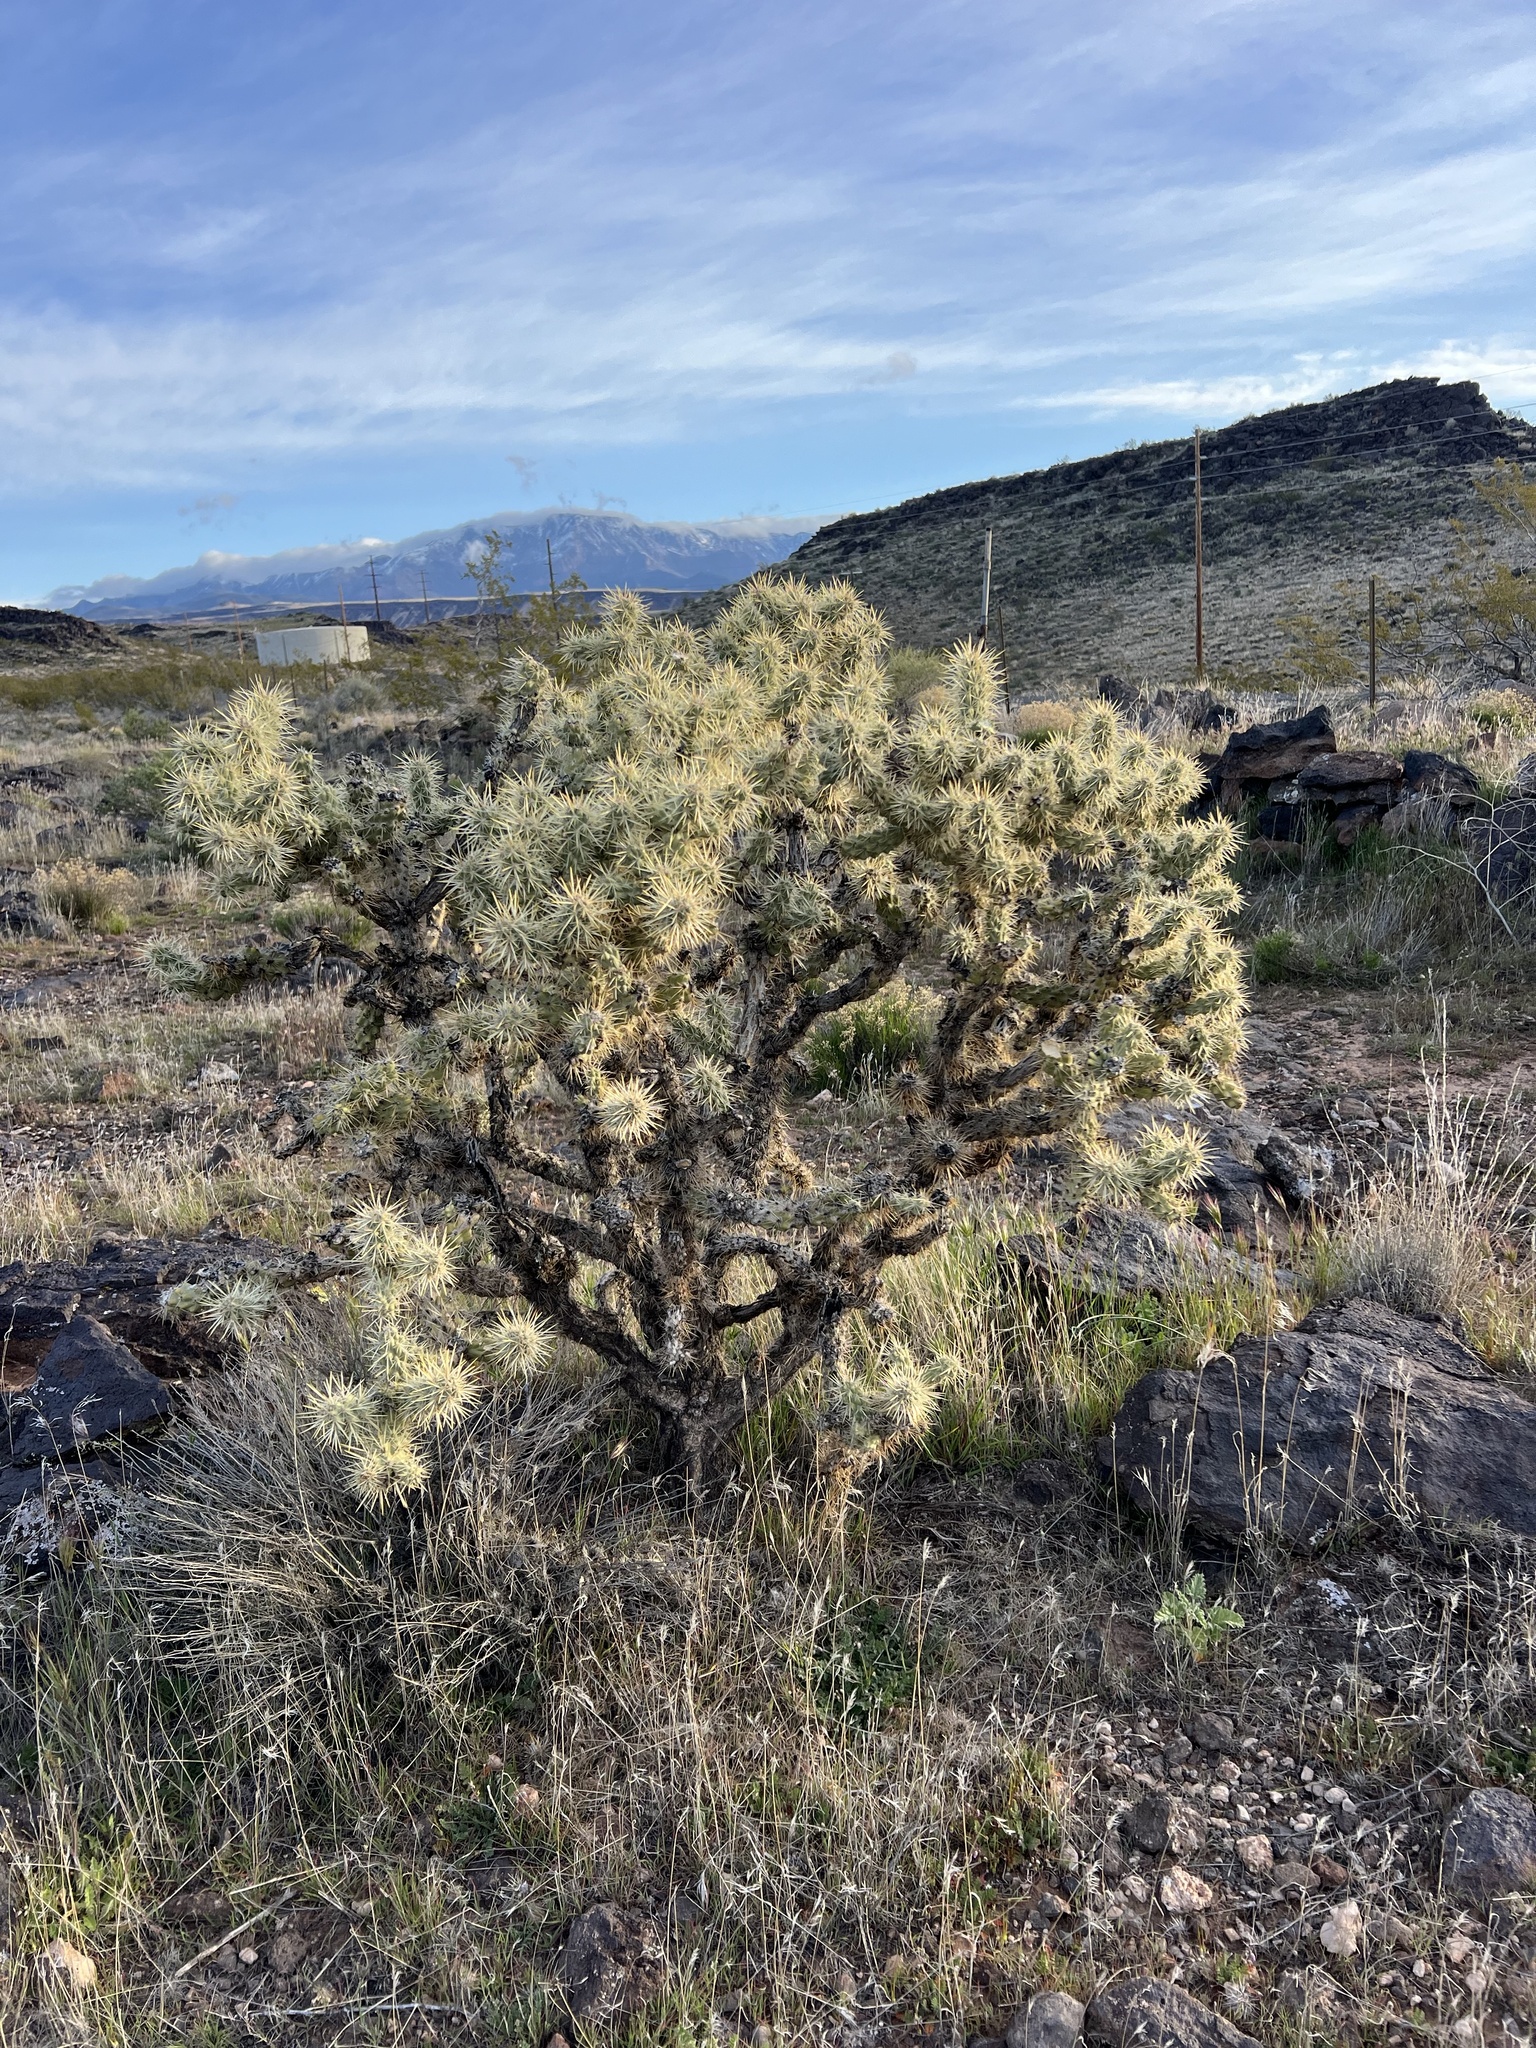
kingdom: Plantae
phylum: Tracheophyta
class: Magnoliopsida
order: Caryophyllales
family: Cactaceae
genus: Cylindropuntia
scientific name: Cylindropuntia echinocarpa
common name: Ground cholla
